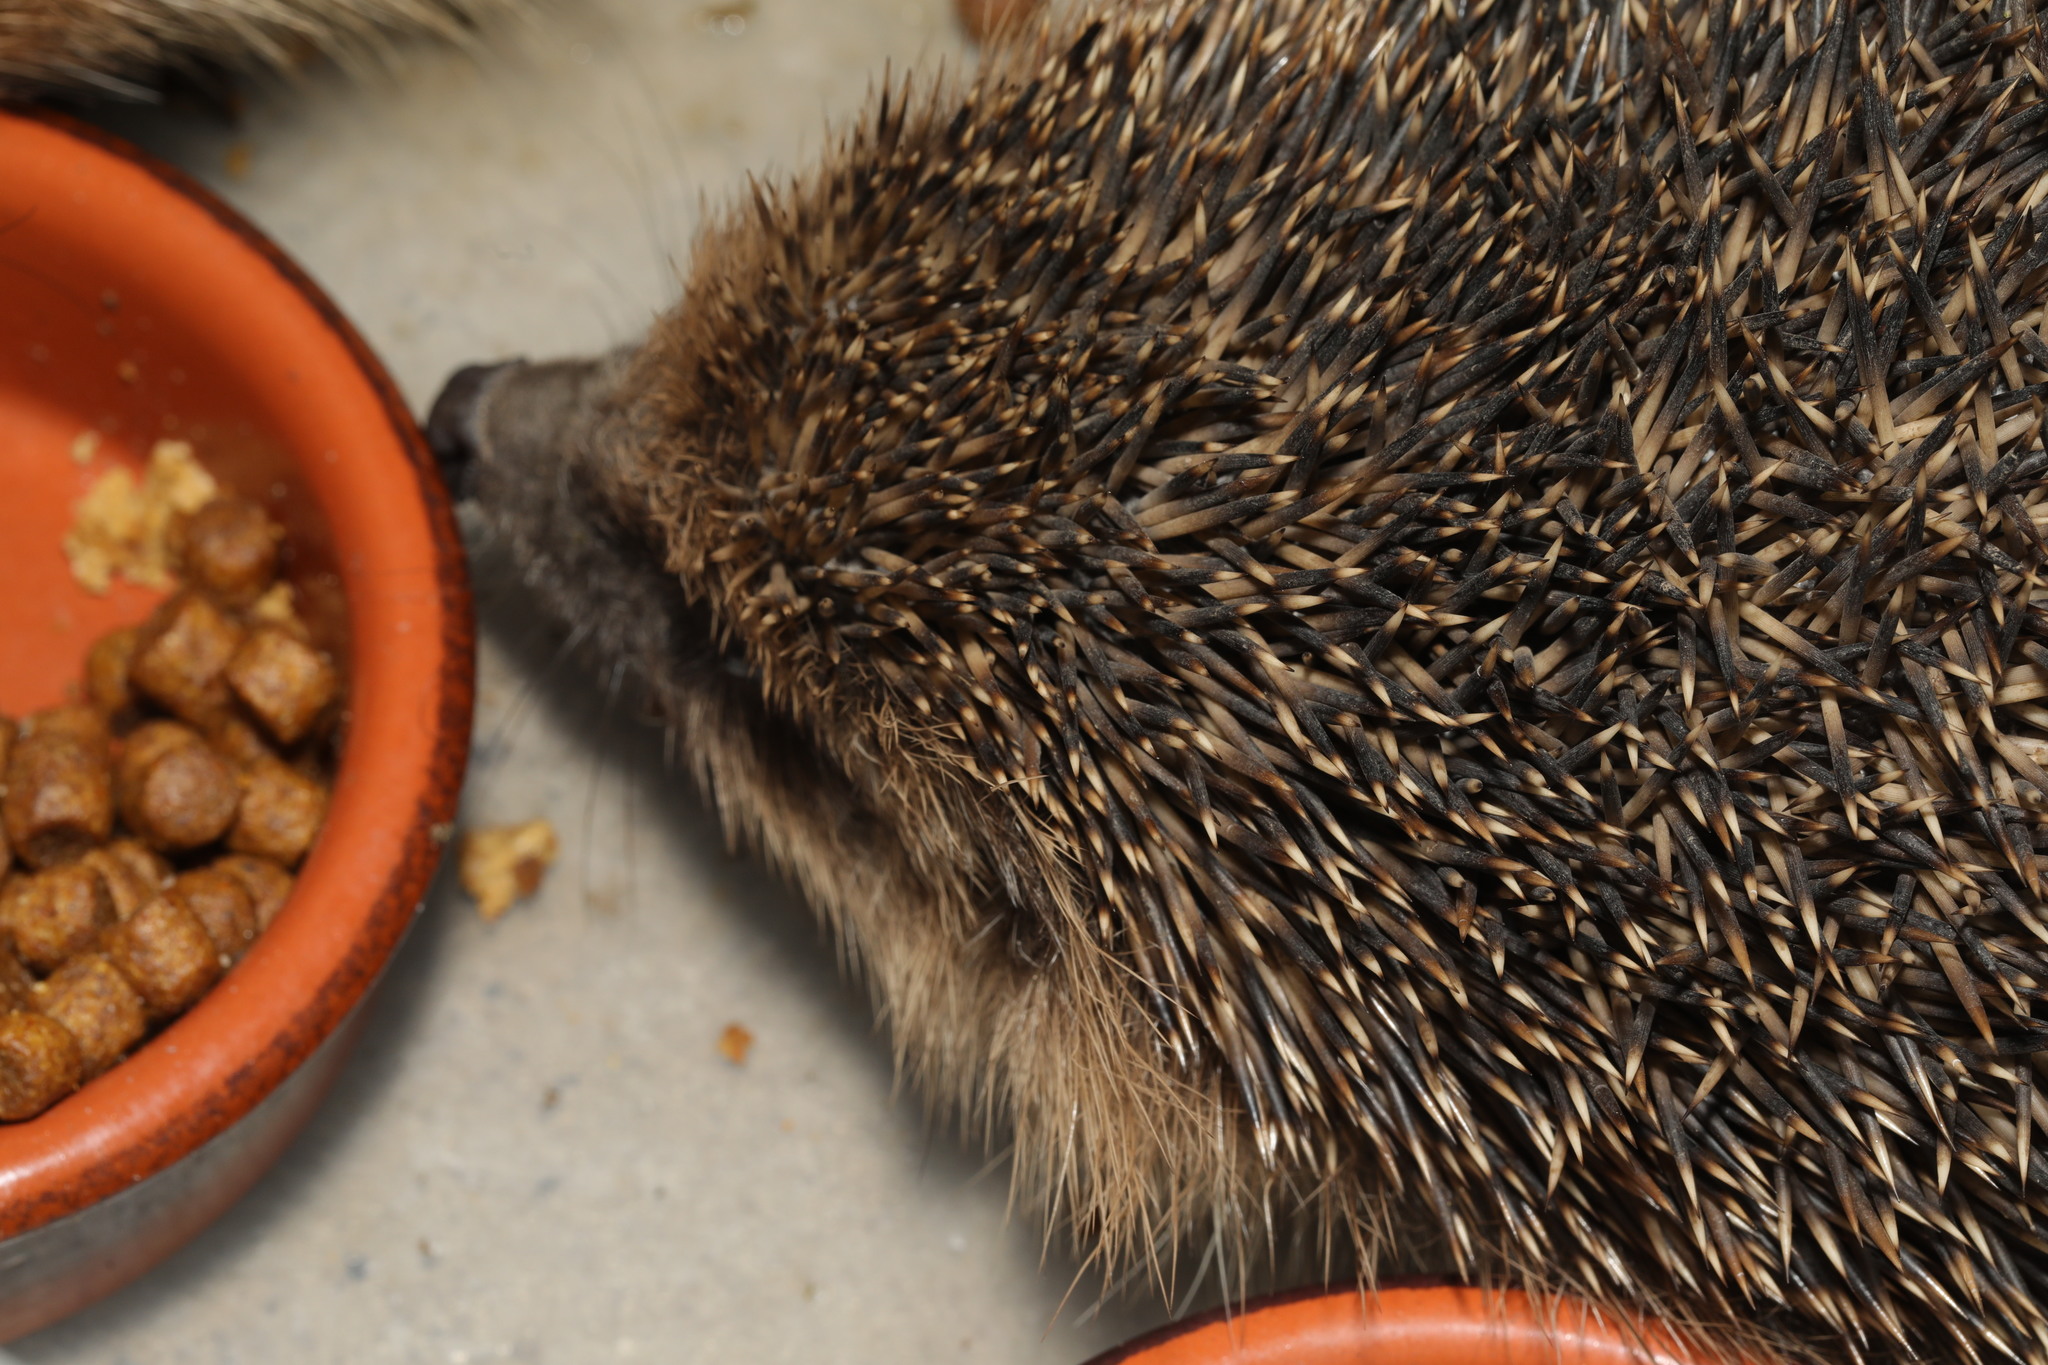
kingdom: Animalia
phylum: Chordata
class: Mammalia
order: Erinaceomorpha
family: Erinaceidae
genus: Erinaceus
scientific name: Erinaceus europaeus
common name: West european hedgehog
